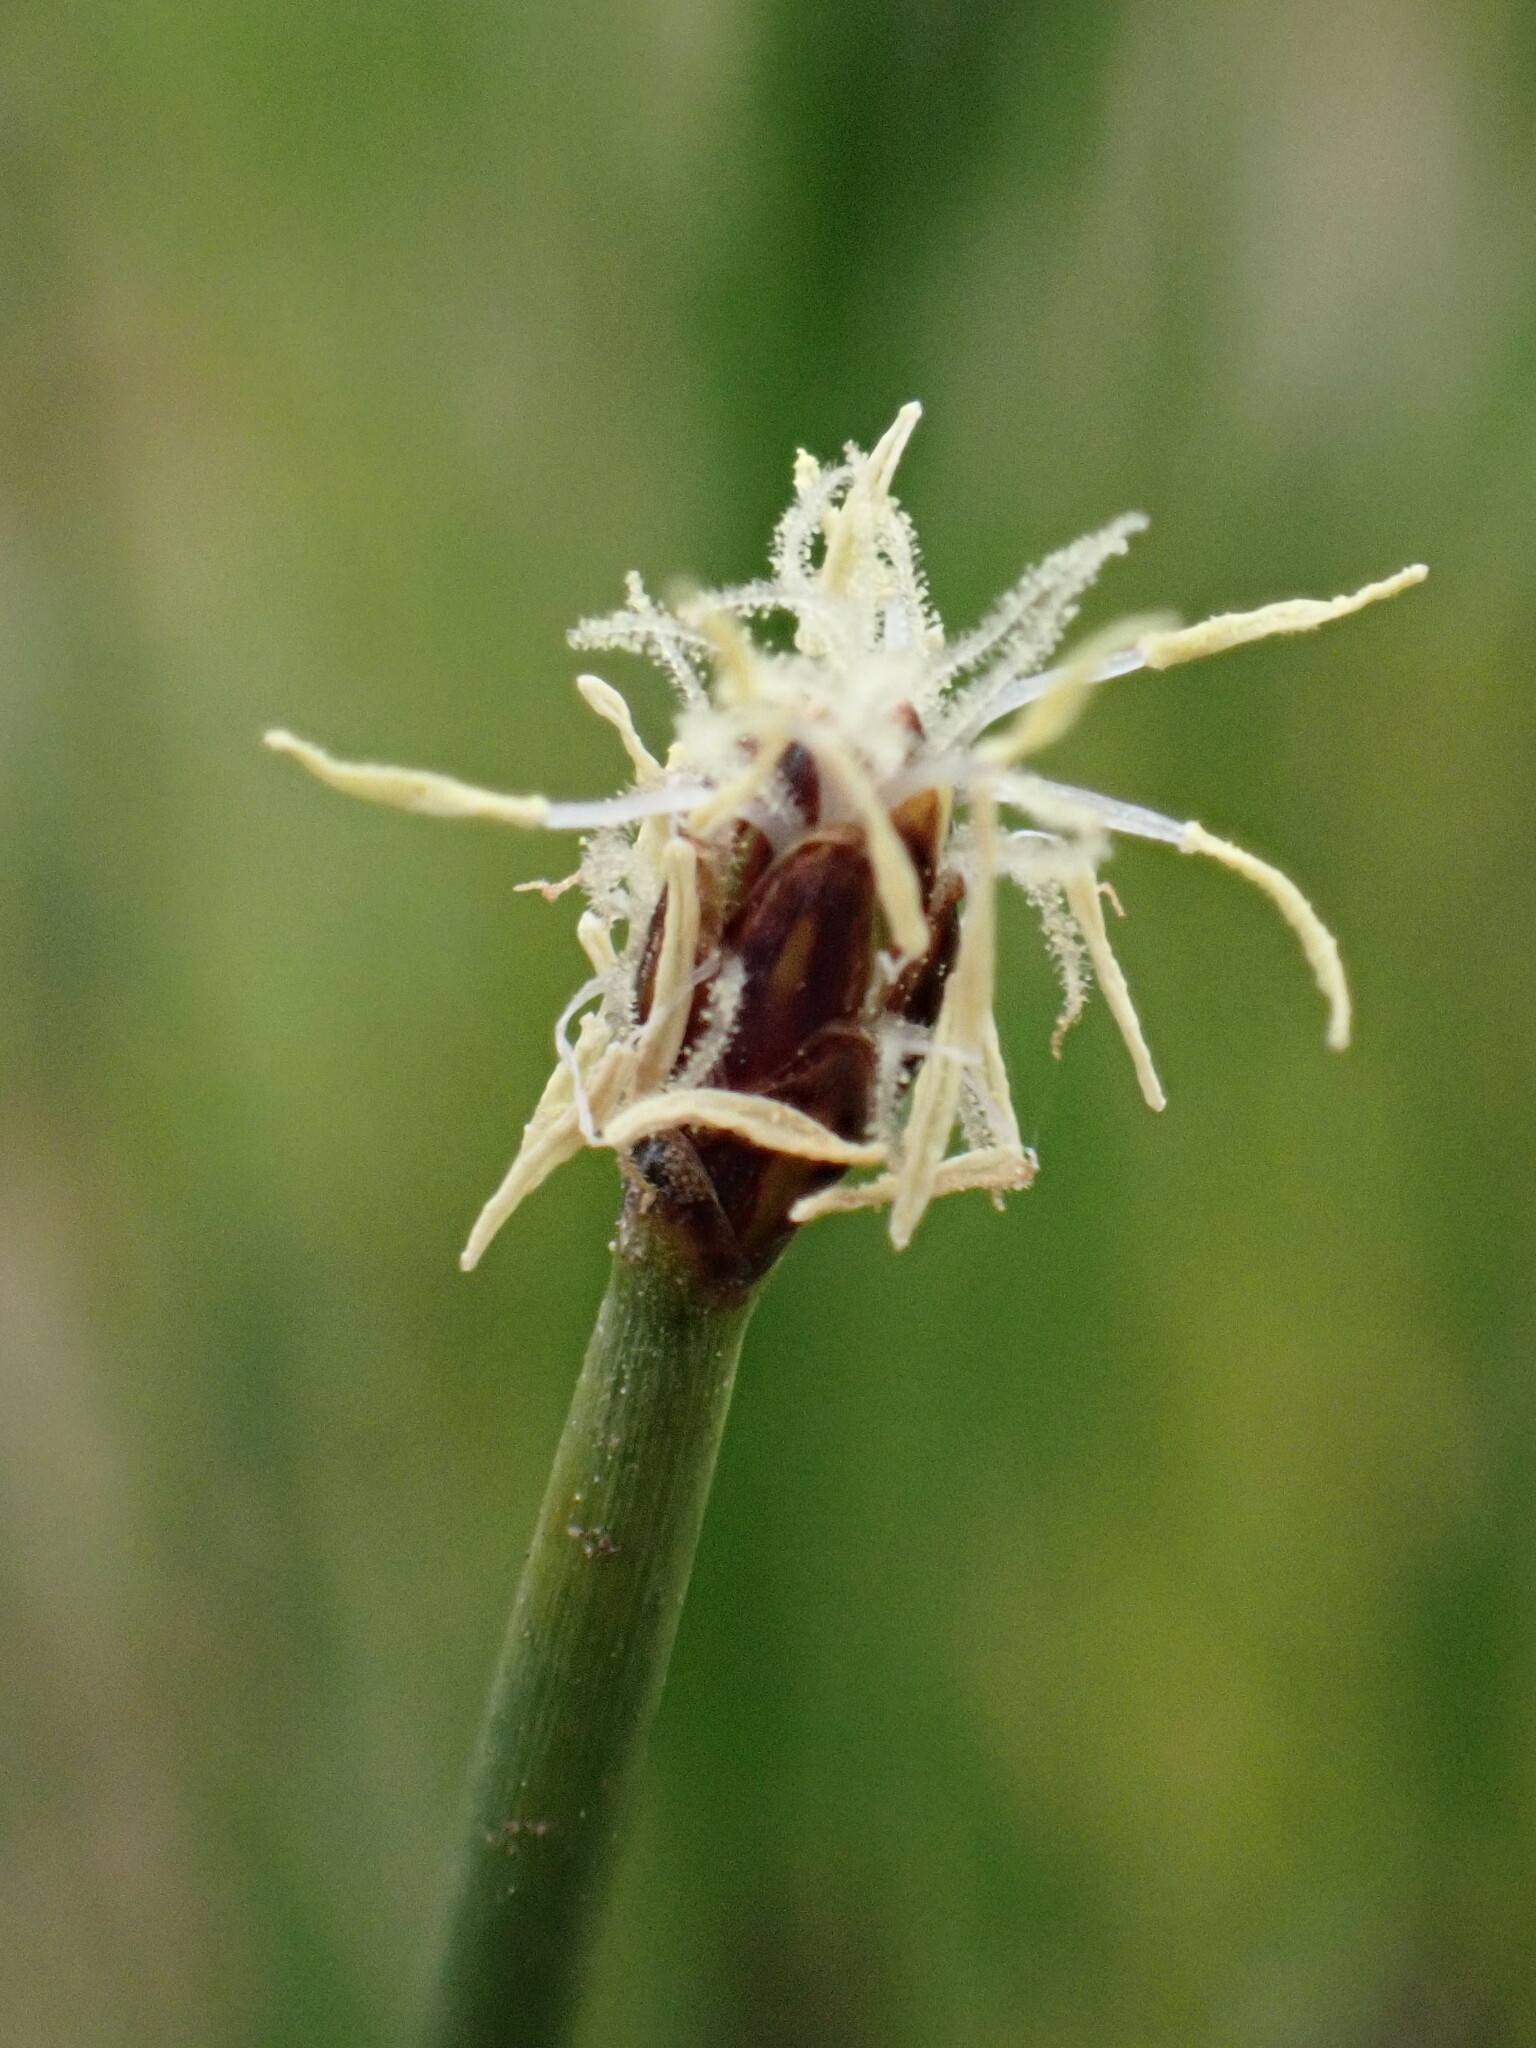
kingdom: Plantae
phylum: Tracheophyta
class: Liliopsida
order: Poales
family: Cyperaceae
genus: Eleocharis
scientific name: Eleocharis palustris
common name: Common spike-rush
